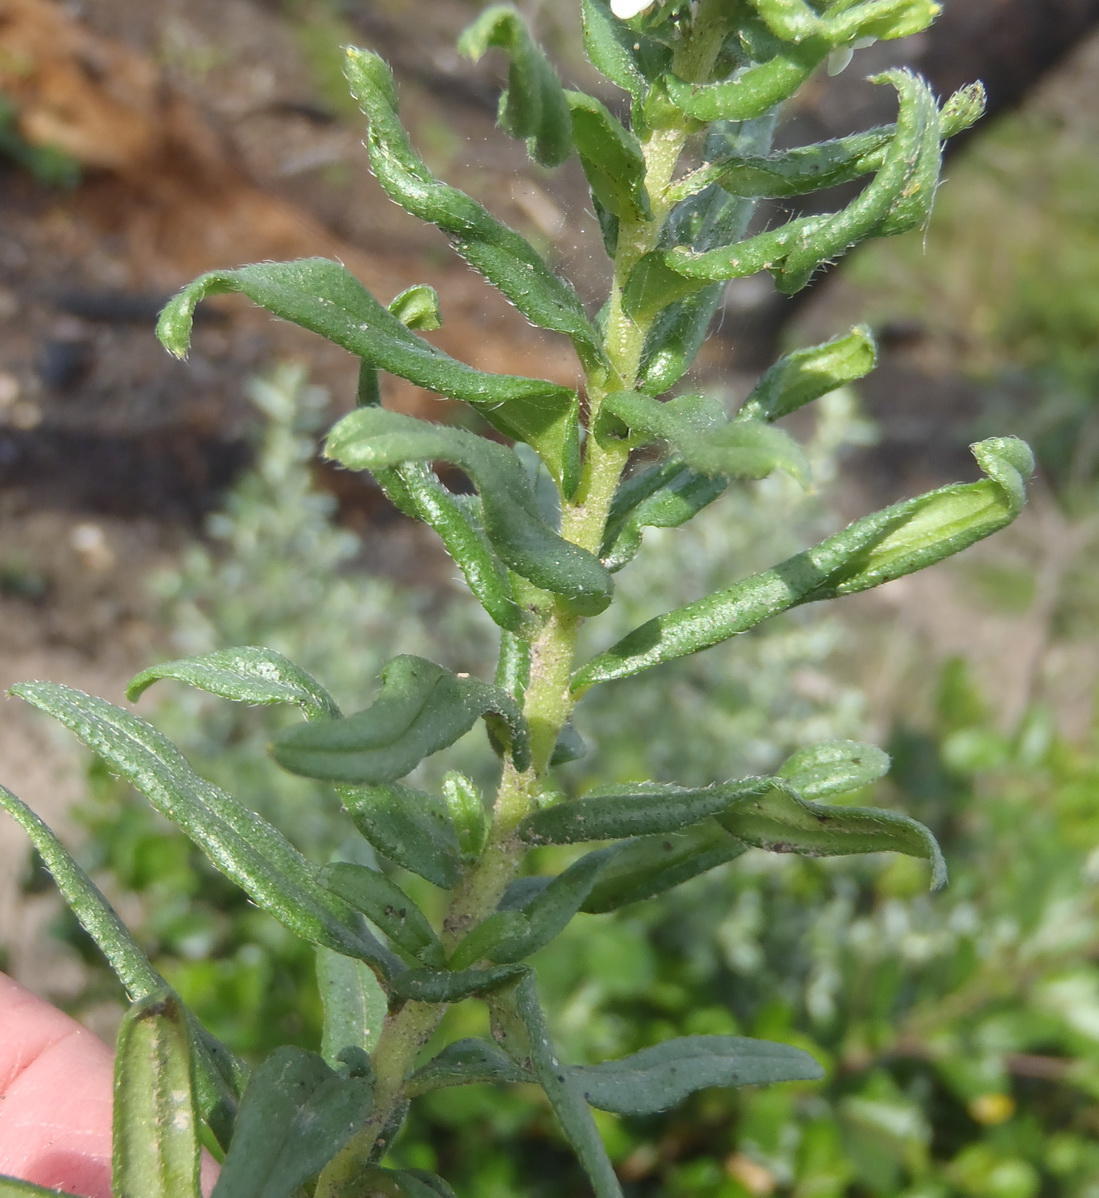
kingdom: Plantae
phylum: Tracheophyta
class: Magnoliopsida
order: Boraginales
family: Boraginaceae
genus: Lithospermum
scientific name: Lithospermum papillosum
